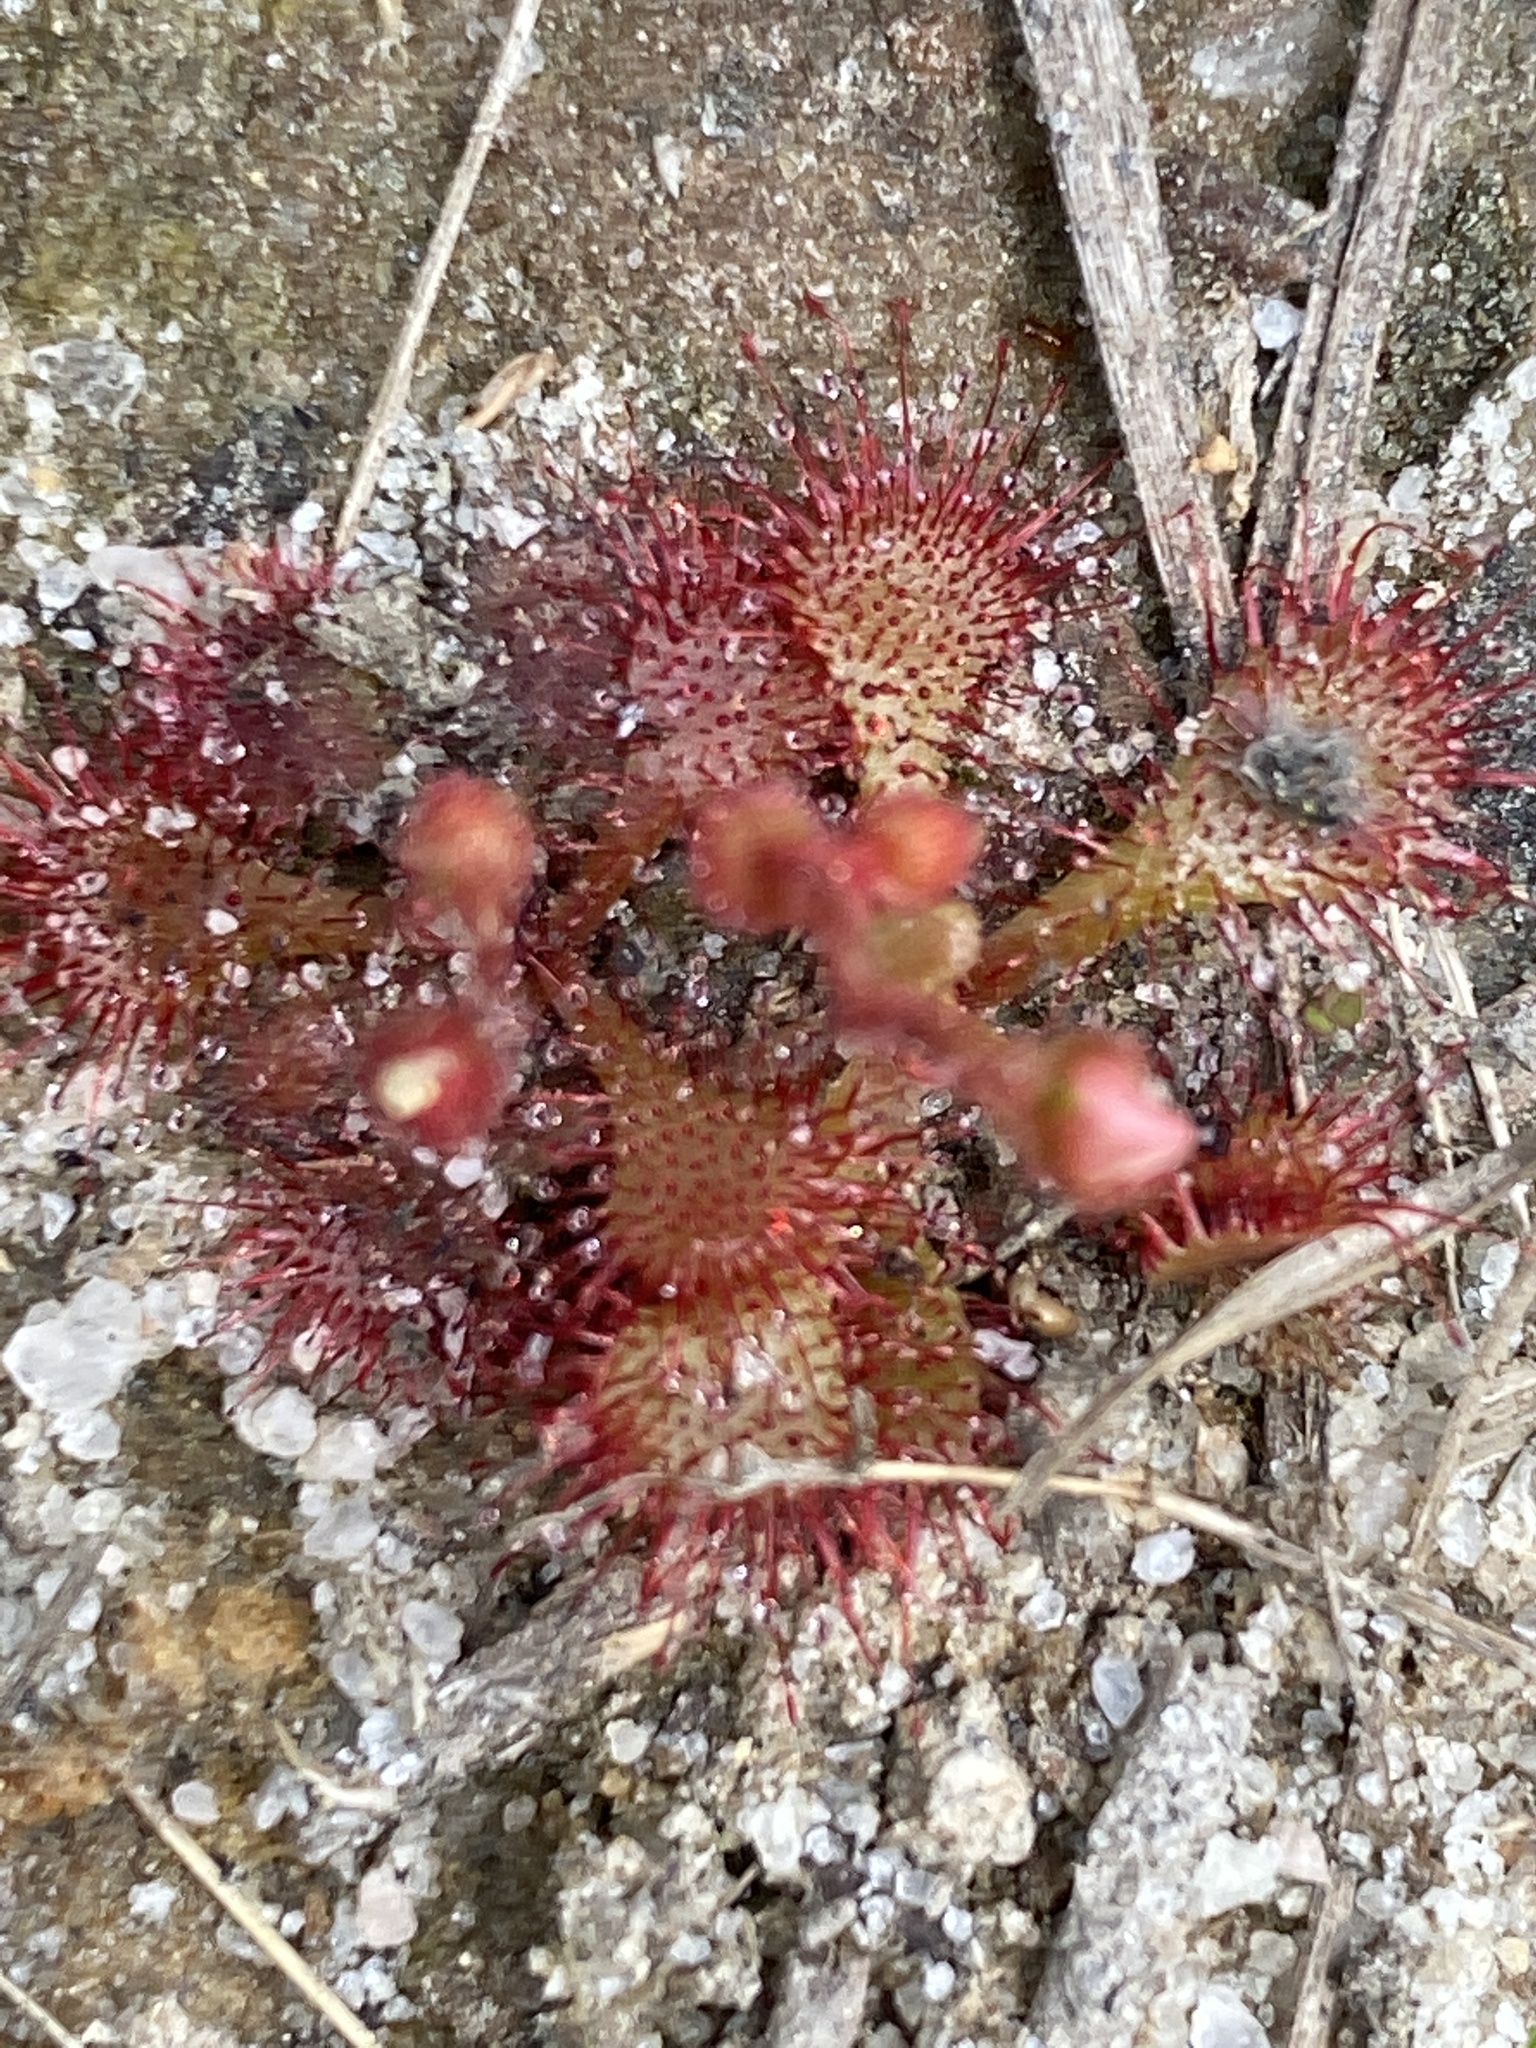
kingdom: Plantae
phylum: Tracheophyta
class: Magnoliopsida
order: Caryophyllales
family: Droseraceae
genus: Drosera
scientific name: Drosera brevifolia
